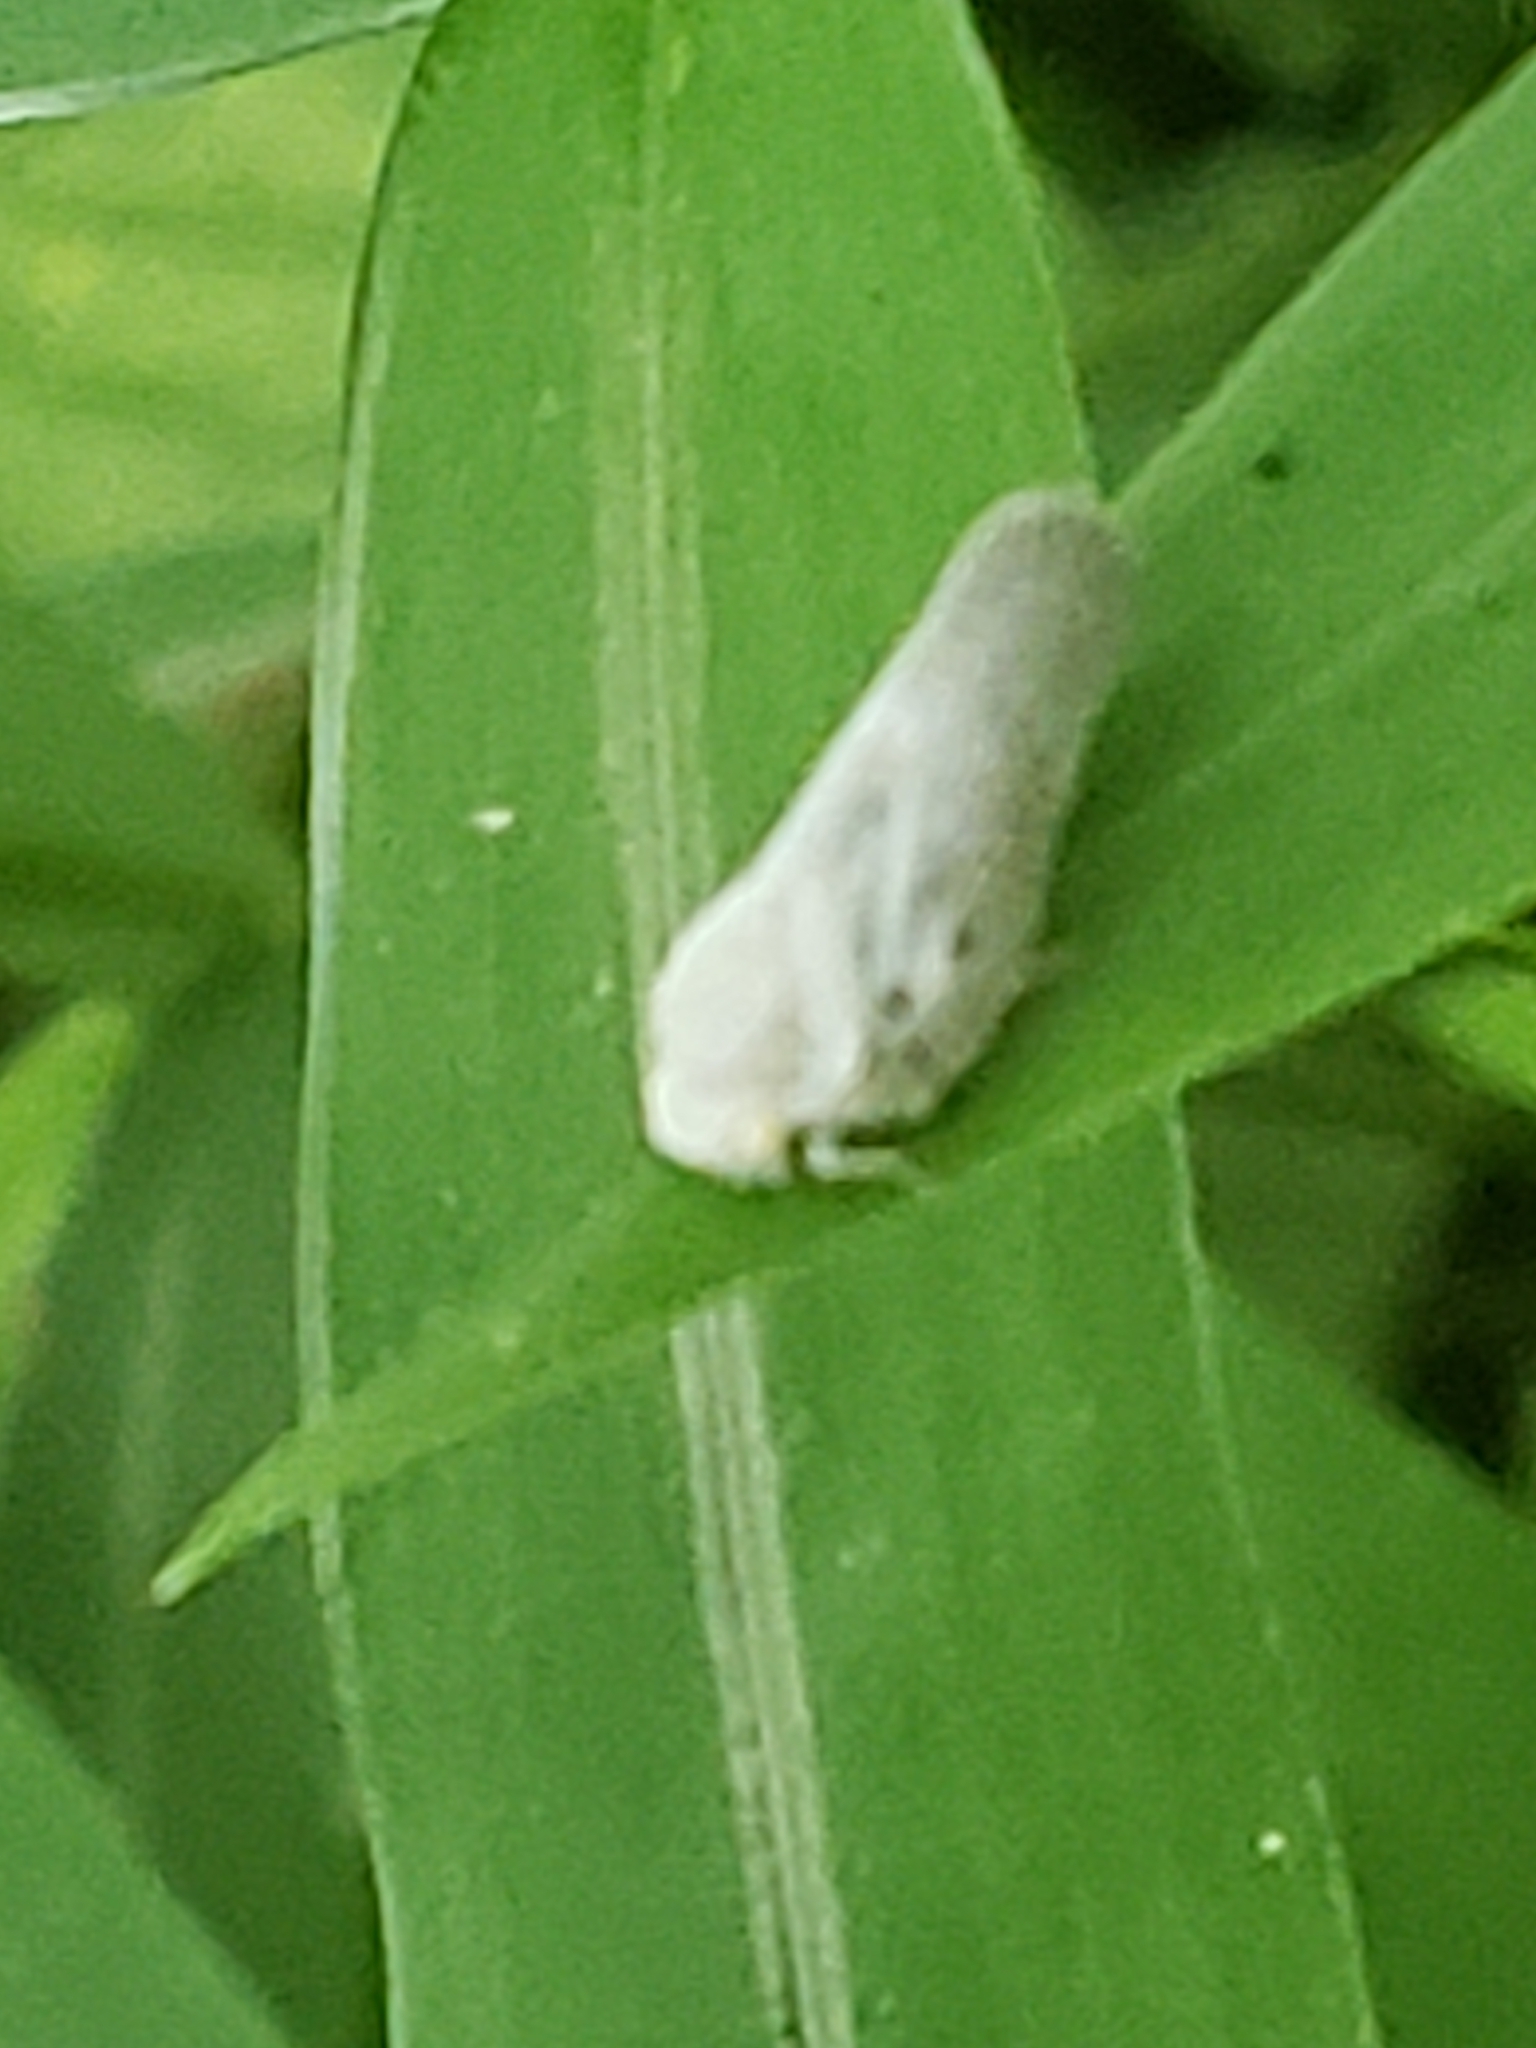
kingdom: Animalia
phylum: Arthropoda
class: Insecta
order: Hemiptera
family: Flatidae
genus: Metcalfa
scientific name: Metcalfa pruinosa
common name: Citrus flatid planthopper
